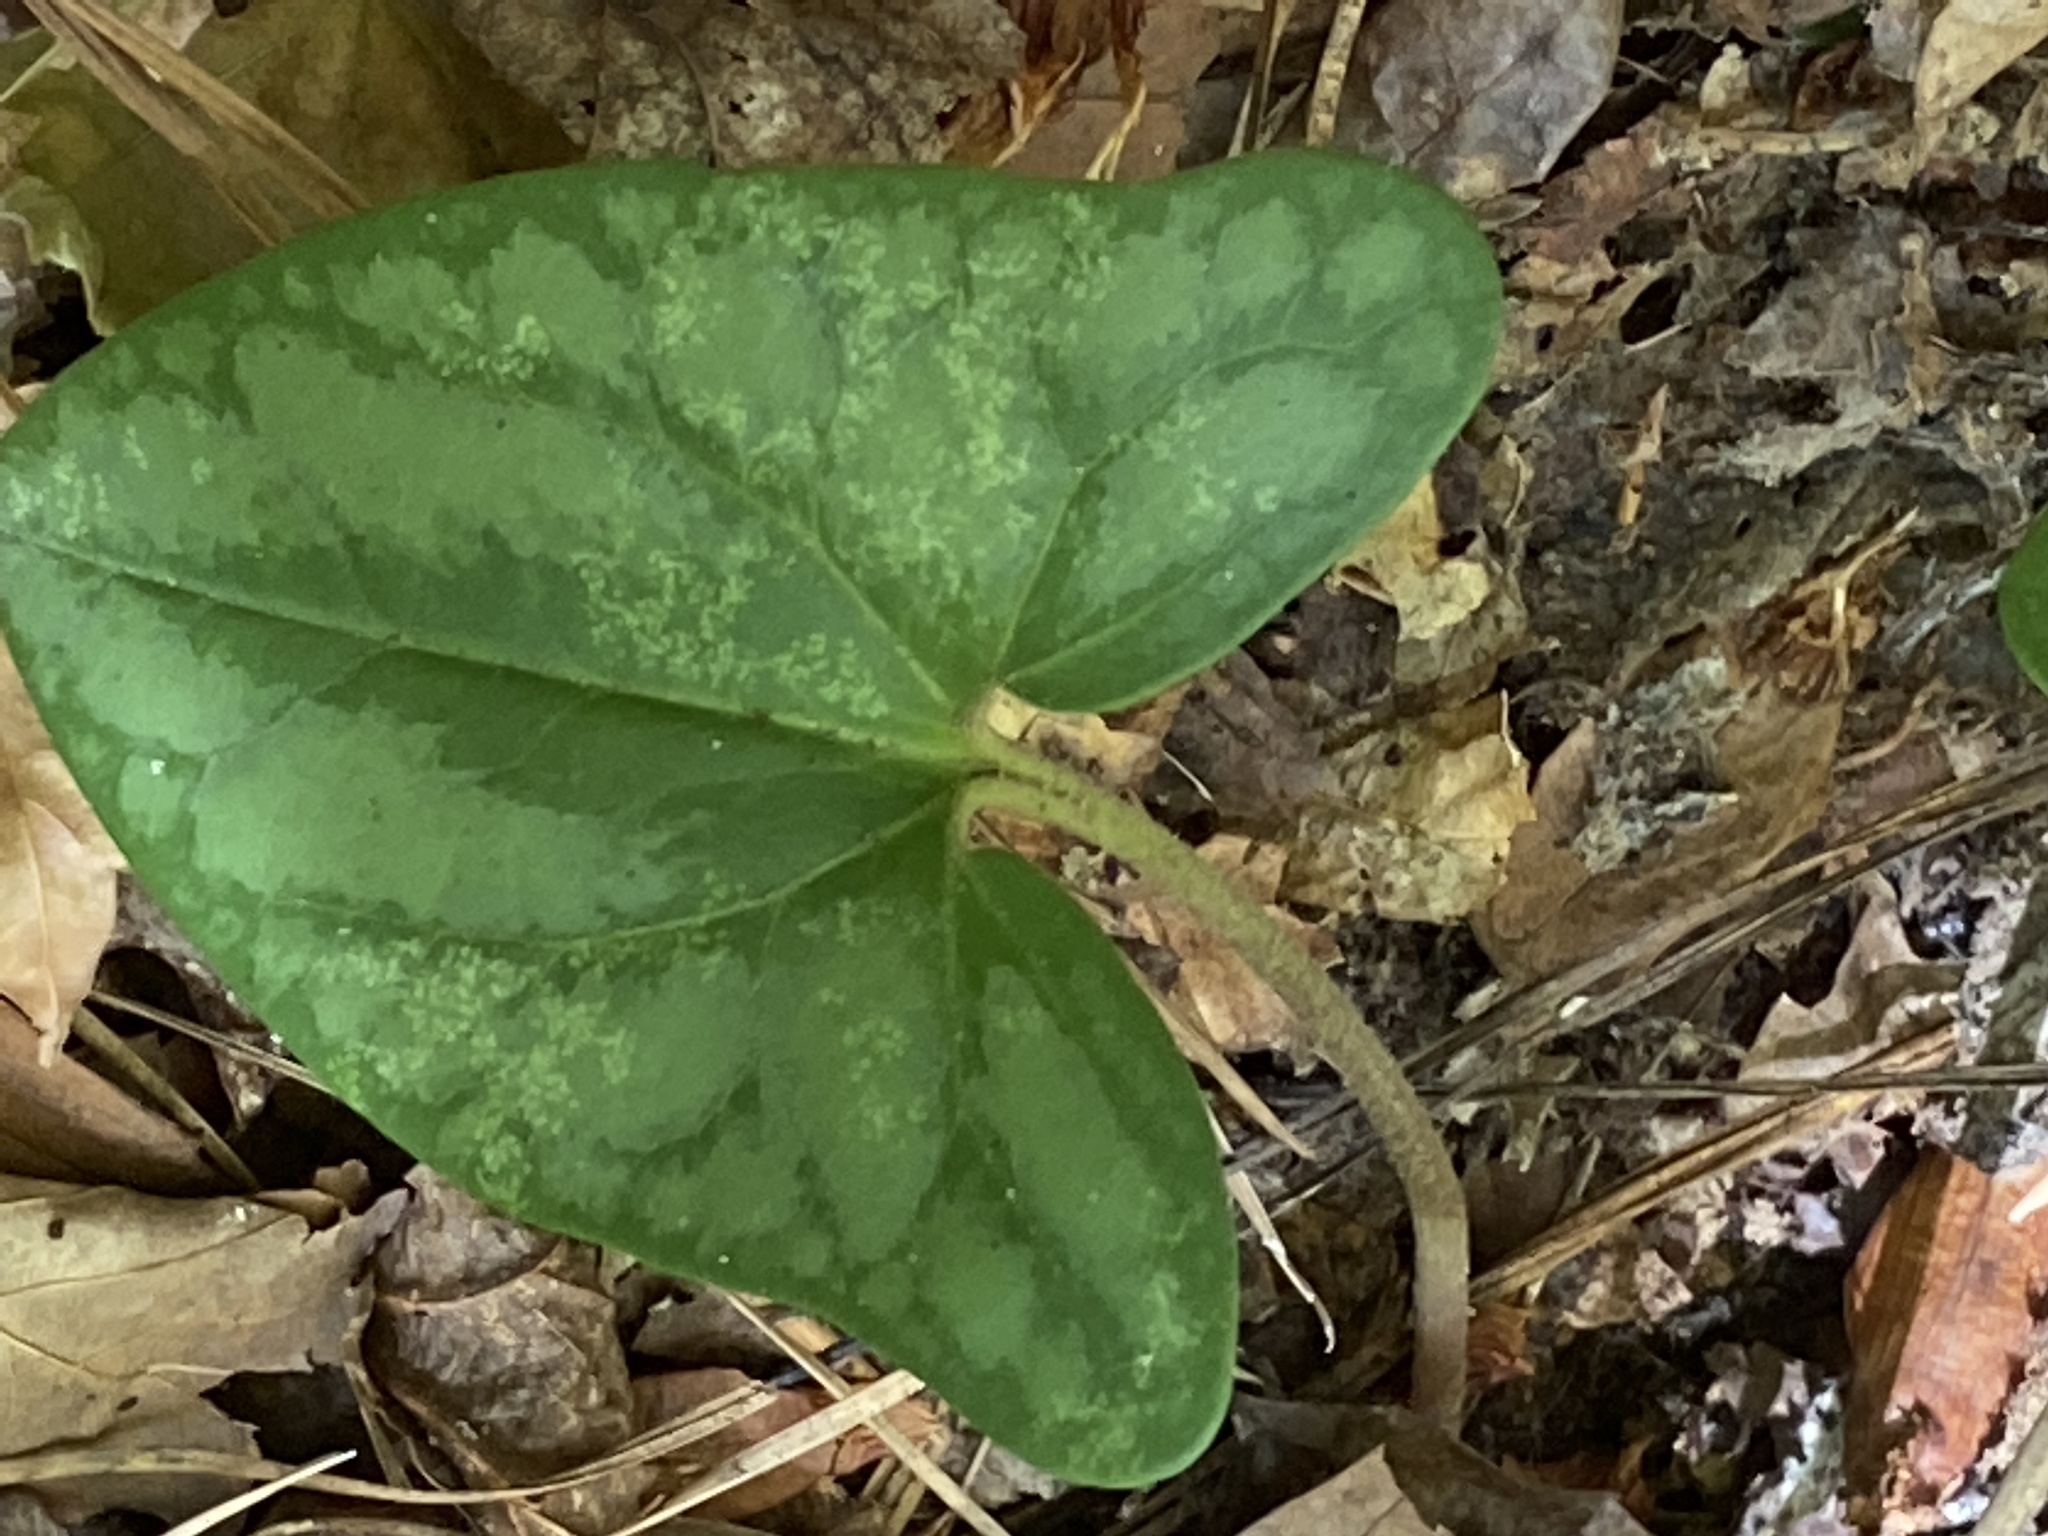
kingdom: Plantae
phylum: Tracheophyta
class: Magnoliopsida
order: Piperales
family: Aristolochiaceae
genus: Hexastylis
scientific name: Hexastylis arifolia
